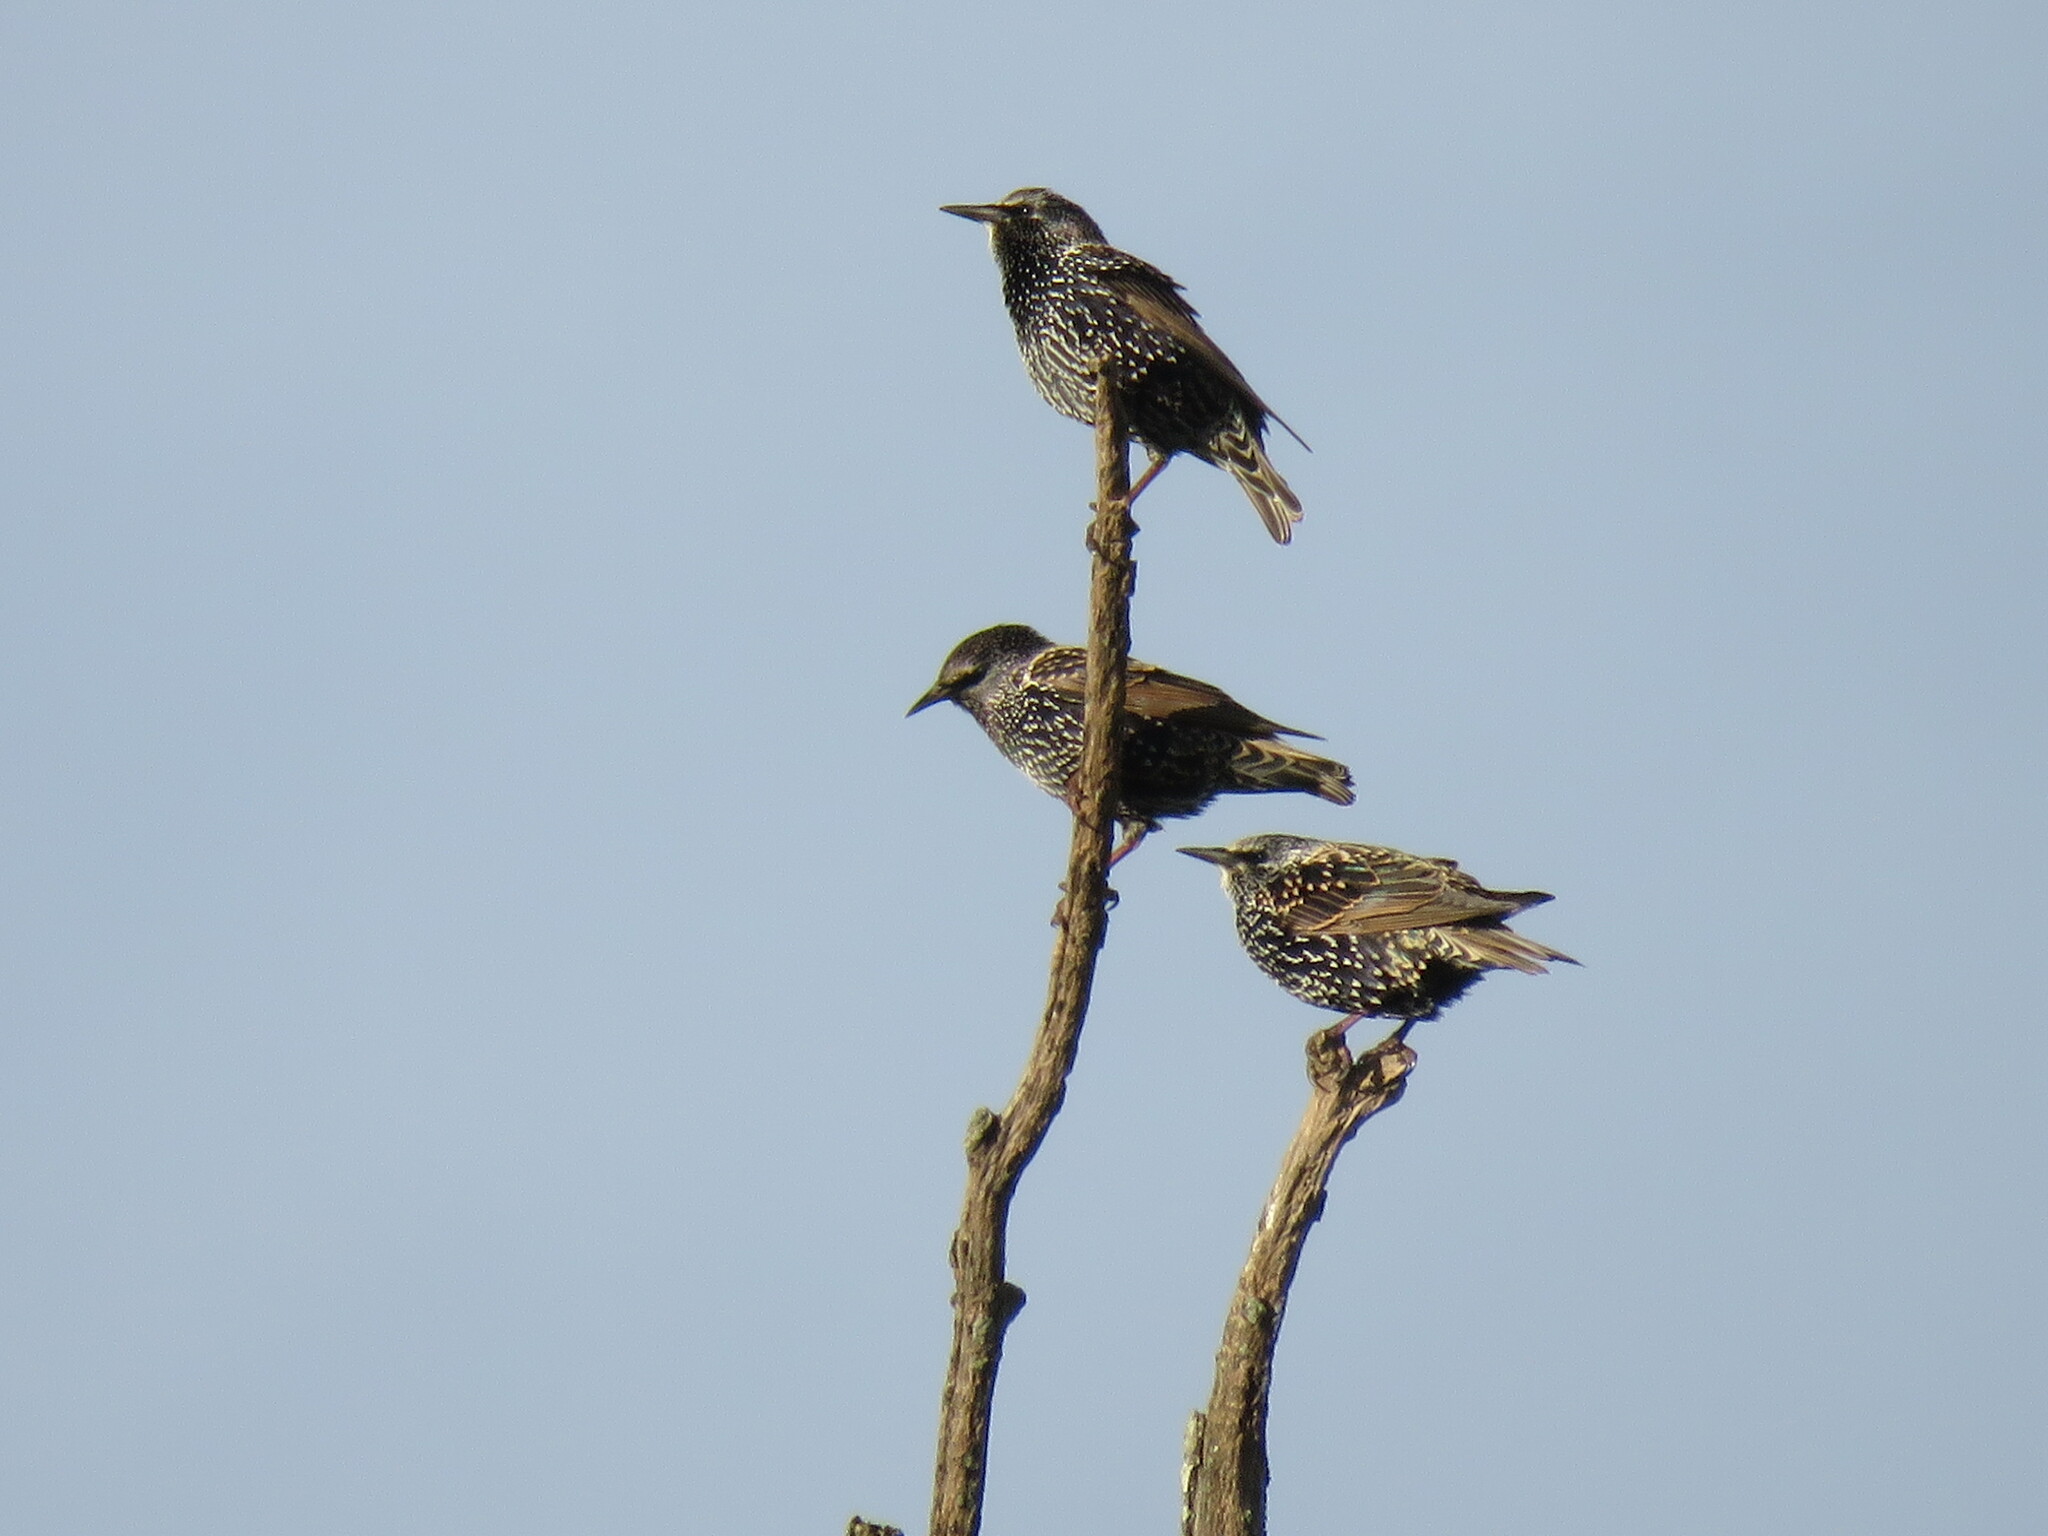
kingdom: Animalia
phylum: Chordata
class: Aves
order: Passeriformes
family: Sturnidae
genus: Sturnus
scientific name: Sturnus vulgaris
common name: Common starling
